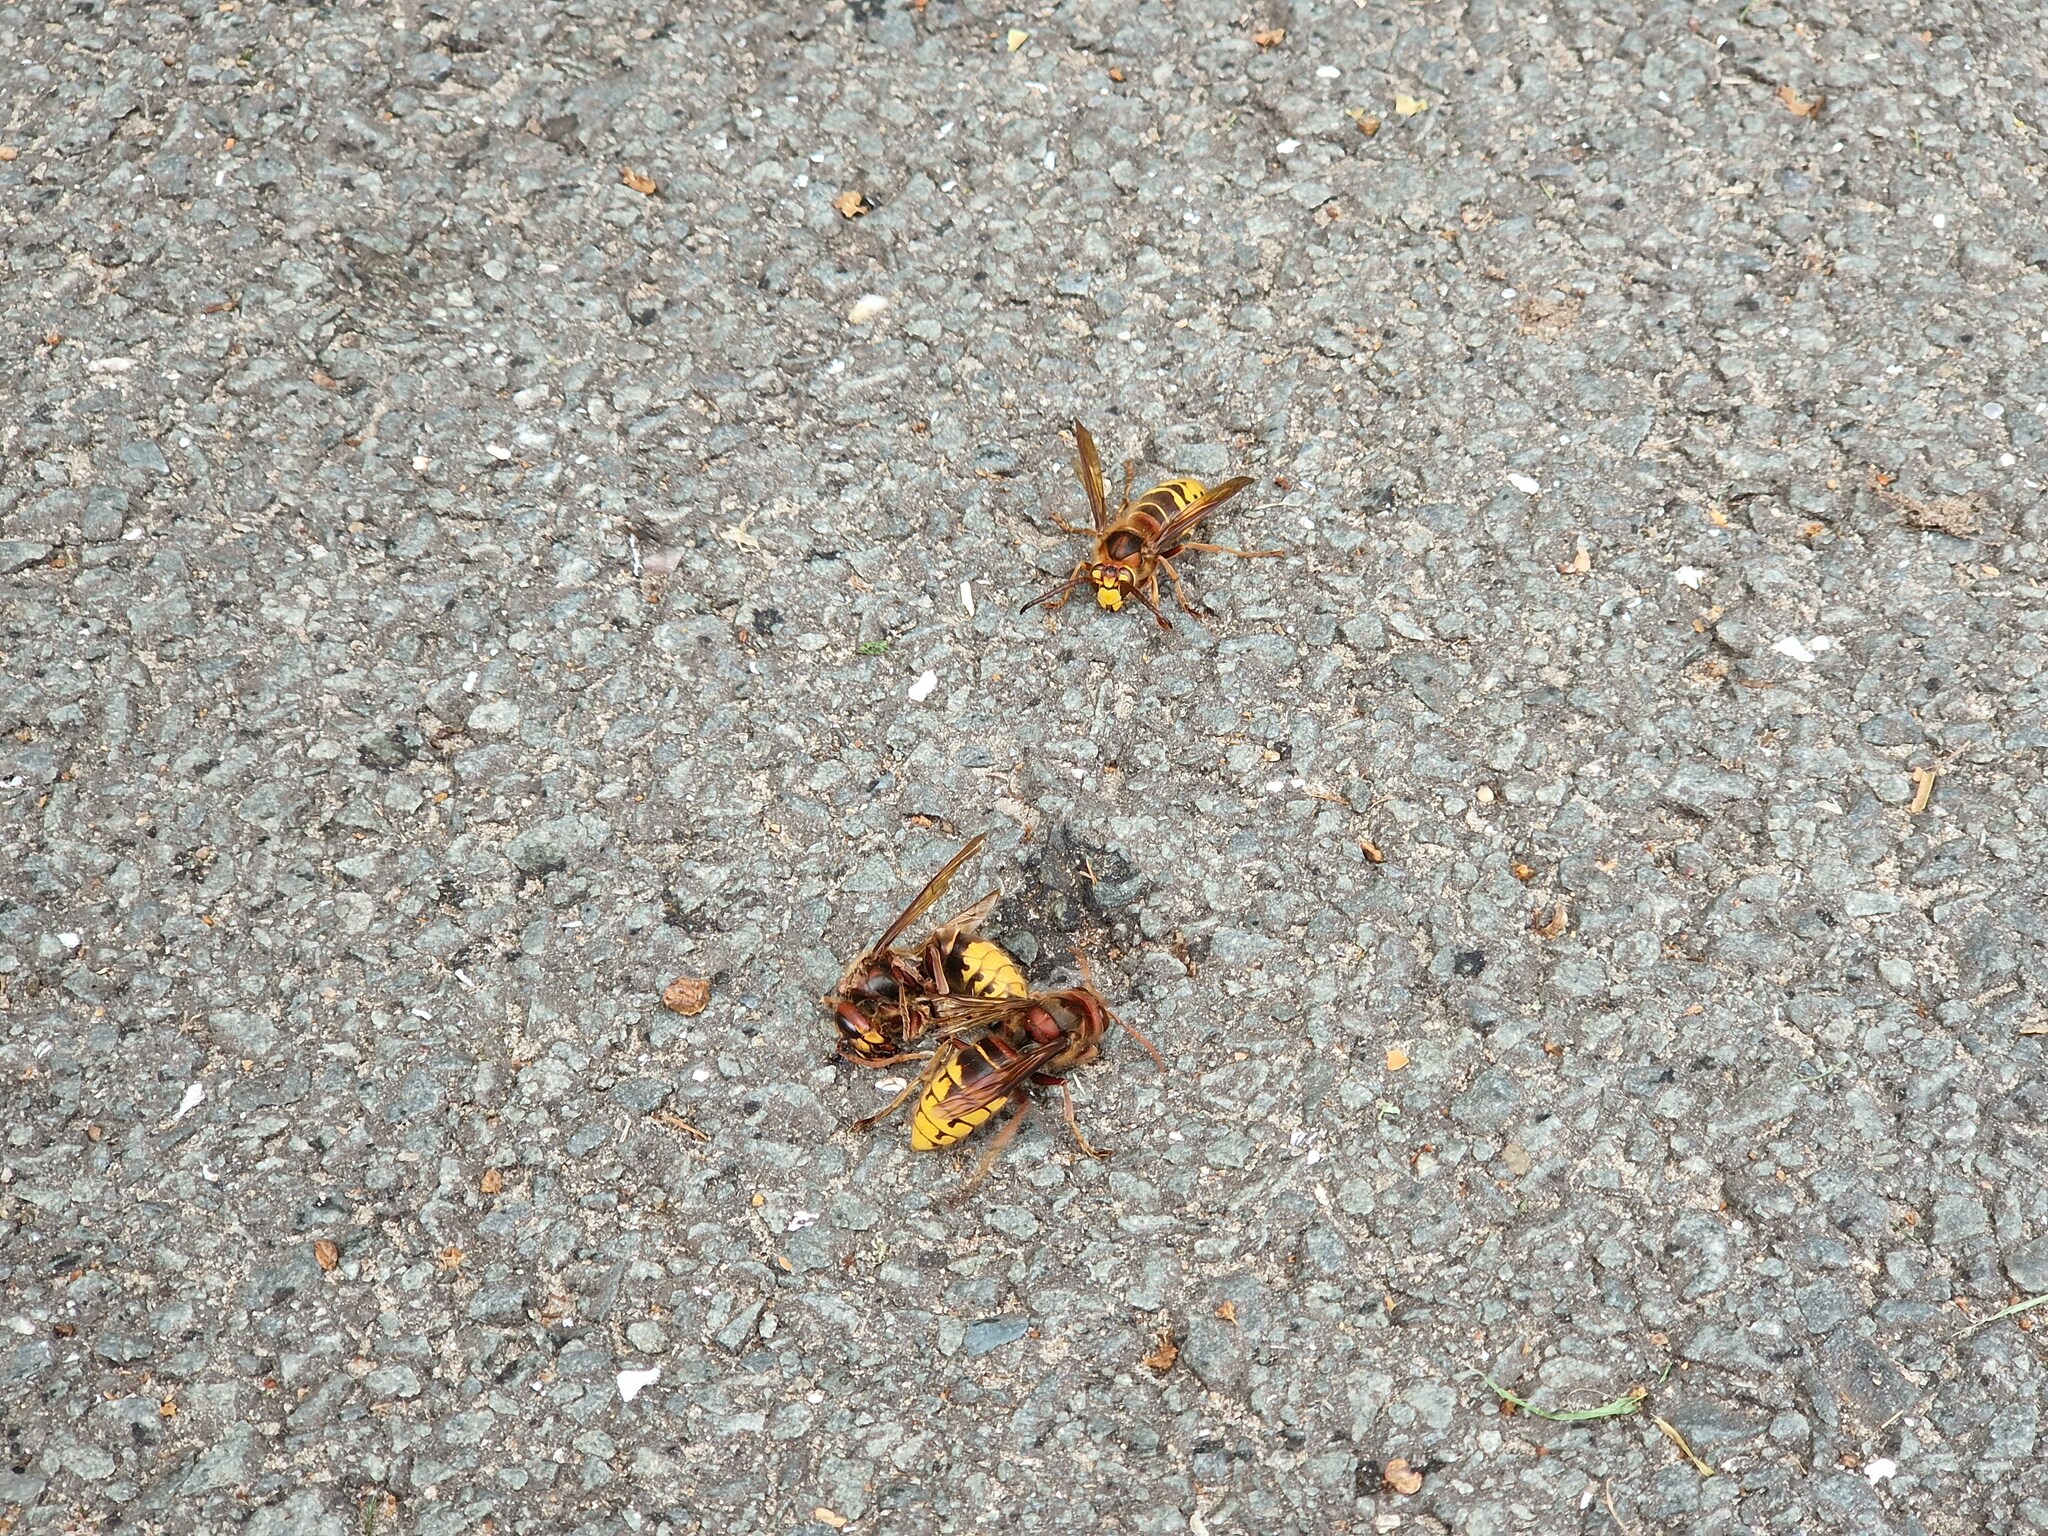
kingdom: Animalia
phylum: Arthropoda
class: Insecta
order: Hymenoptera
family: Vespidae
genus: Vespa
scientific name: Vespa crabro
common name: Hornet
